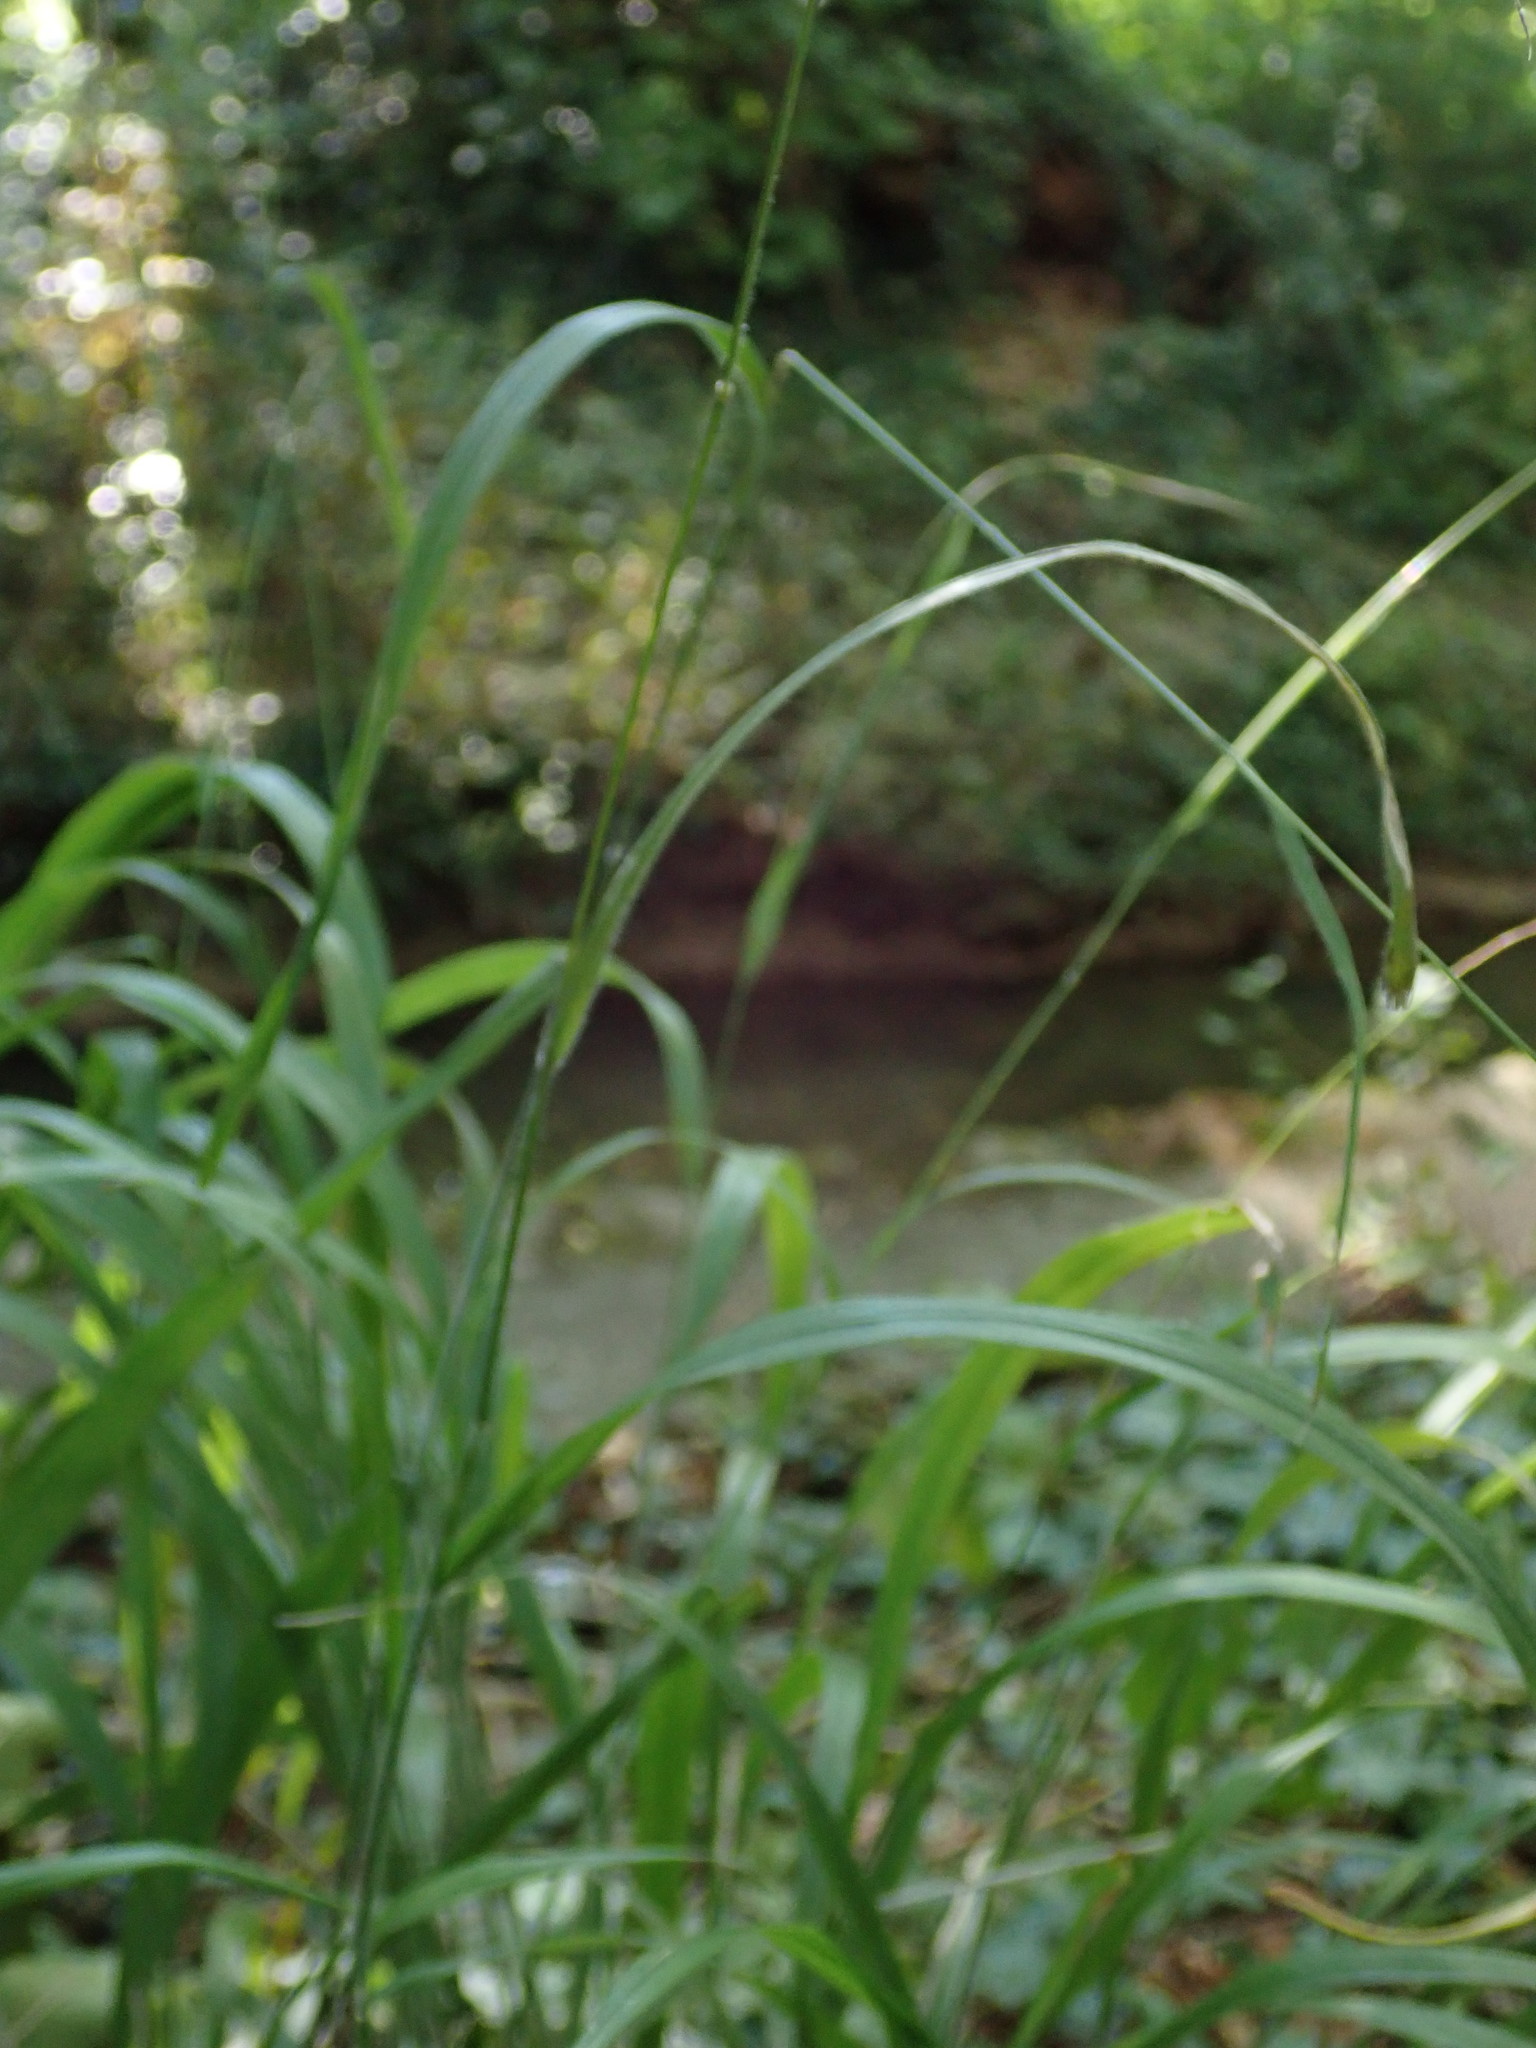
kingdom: Plantae
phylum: Tracheophyta
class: Liliopsida
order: Poales
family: Poaceae
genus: Brachypodium
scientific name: Brachypodium sylvaticum
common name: False-brome
